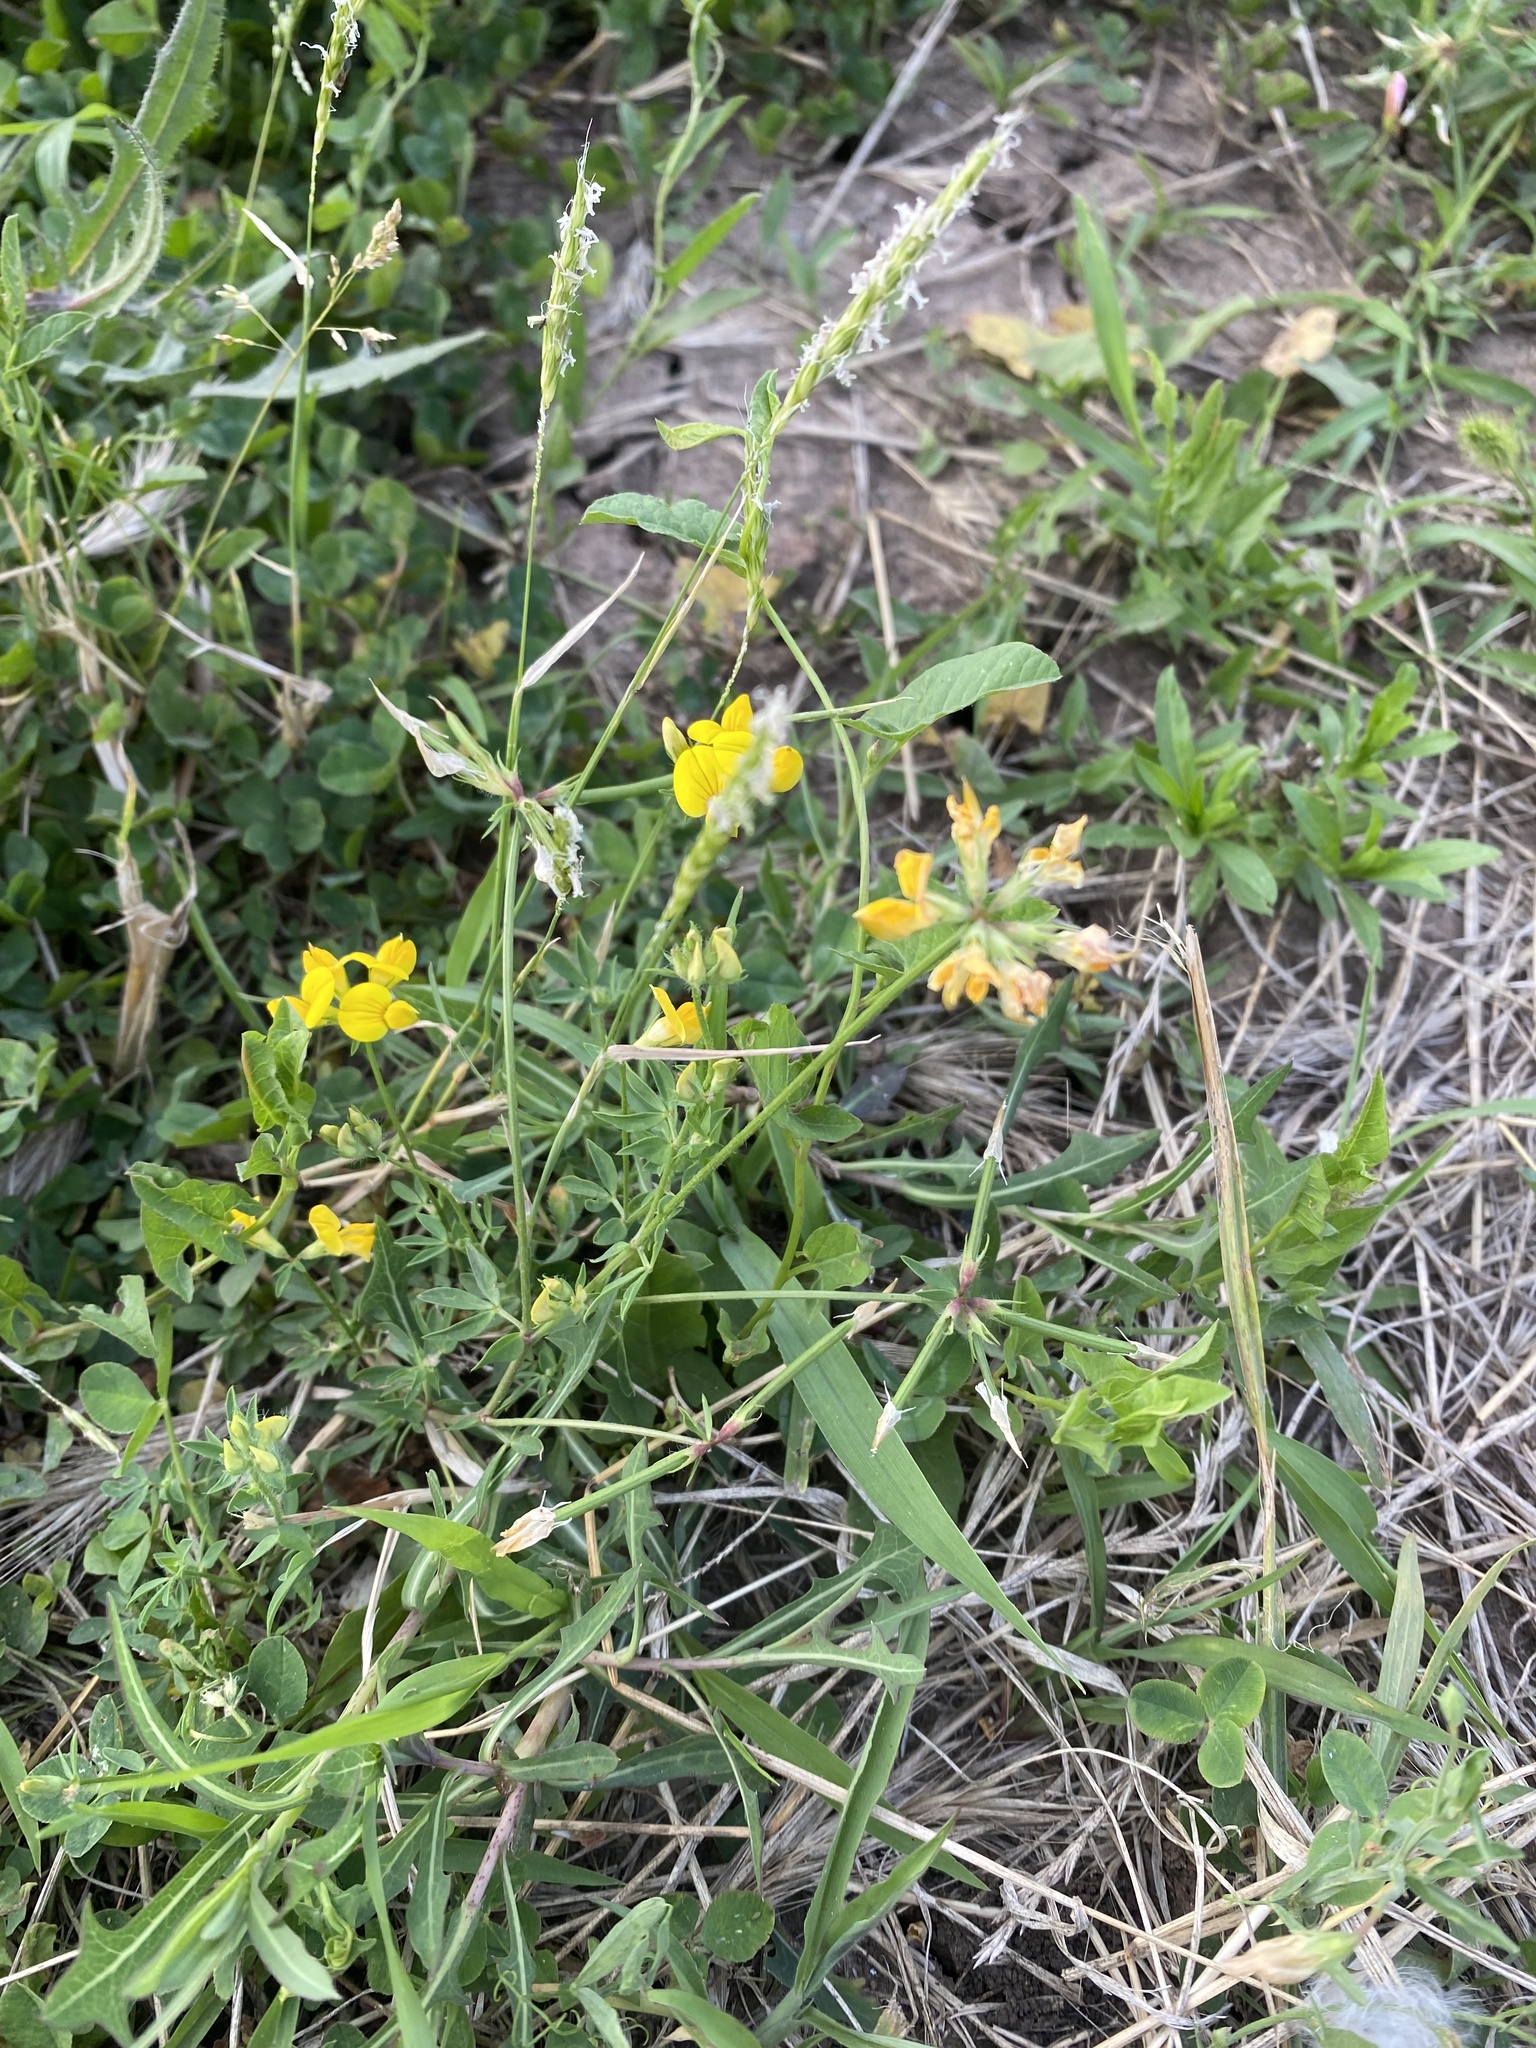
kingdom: Plantae
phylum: Tracheophyta
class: Magnoliopsida
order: Fabales
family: Fabaceae
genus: Lotus
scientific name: Lotus corniculatus
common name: Common bird's-foot-trefoil
